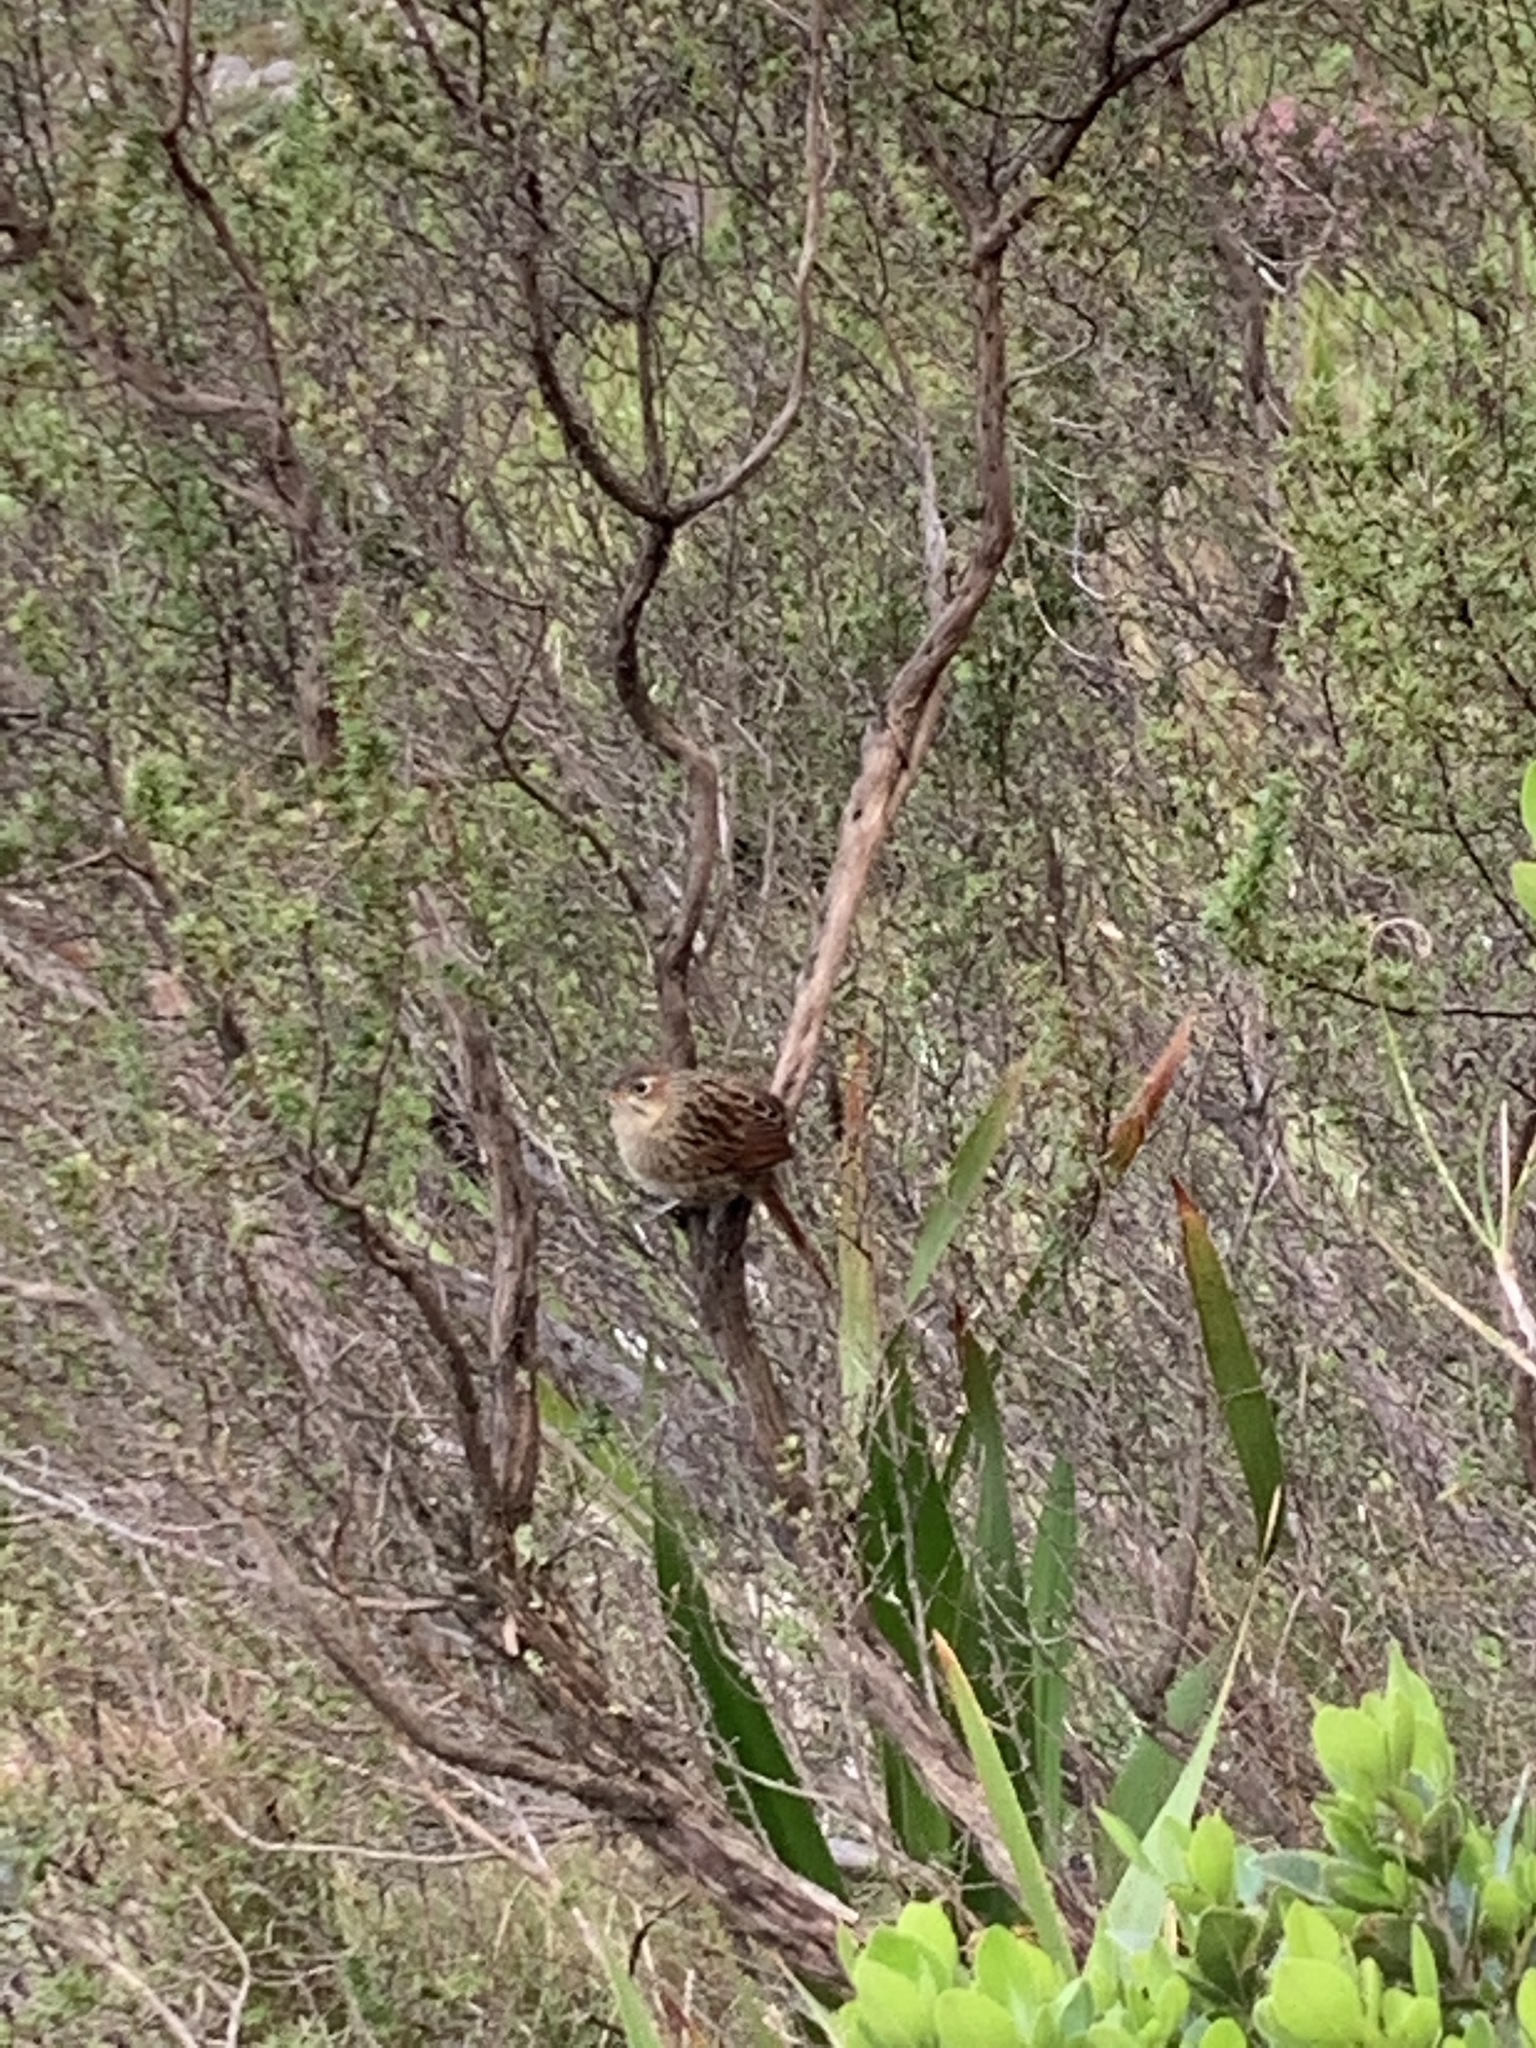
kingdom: Animalia
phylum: Chordata
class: Aves
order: Passeriformes
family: Macrosphenidae
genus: Sphenoeacus
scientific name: Sphenoeacus afer
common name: Cape grassbird
